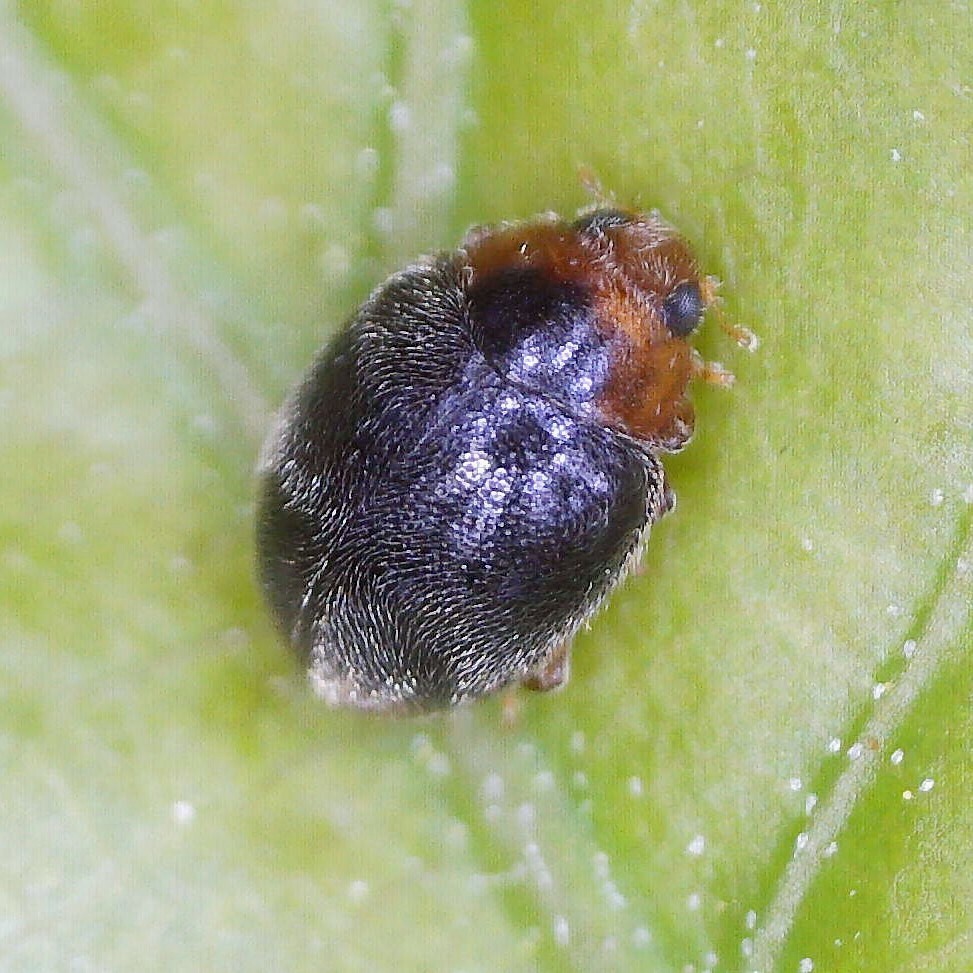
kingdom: Animalia
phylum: Arthropoda
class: Insecta
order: Coleoptera
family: Coccinellidae
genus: Scymnus
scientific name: Scymnus haemorrhoidalis
